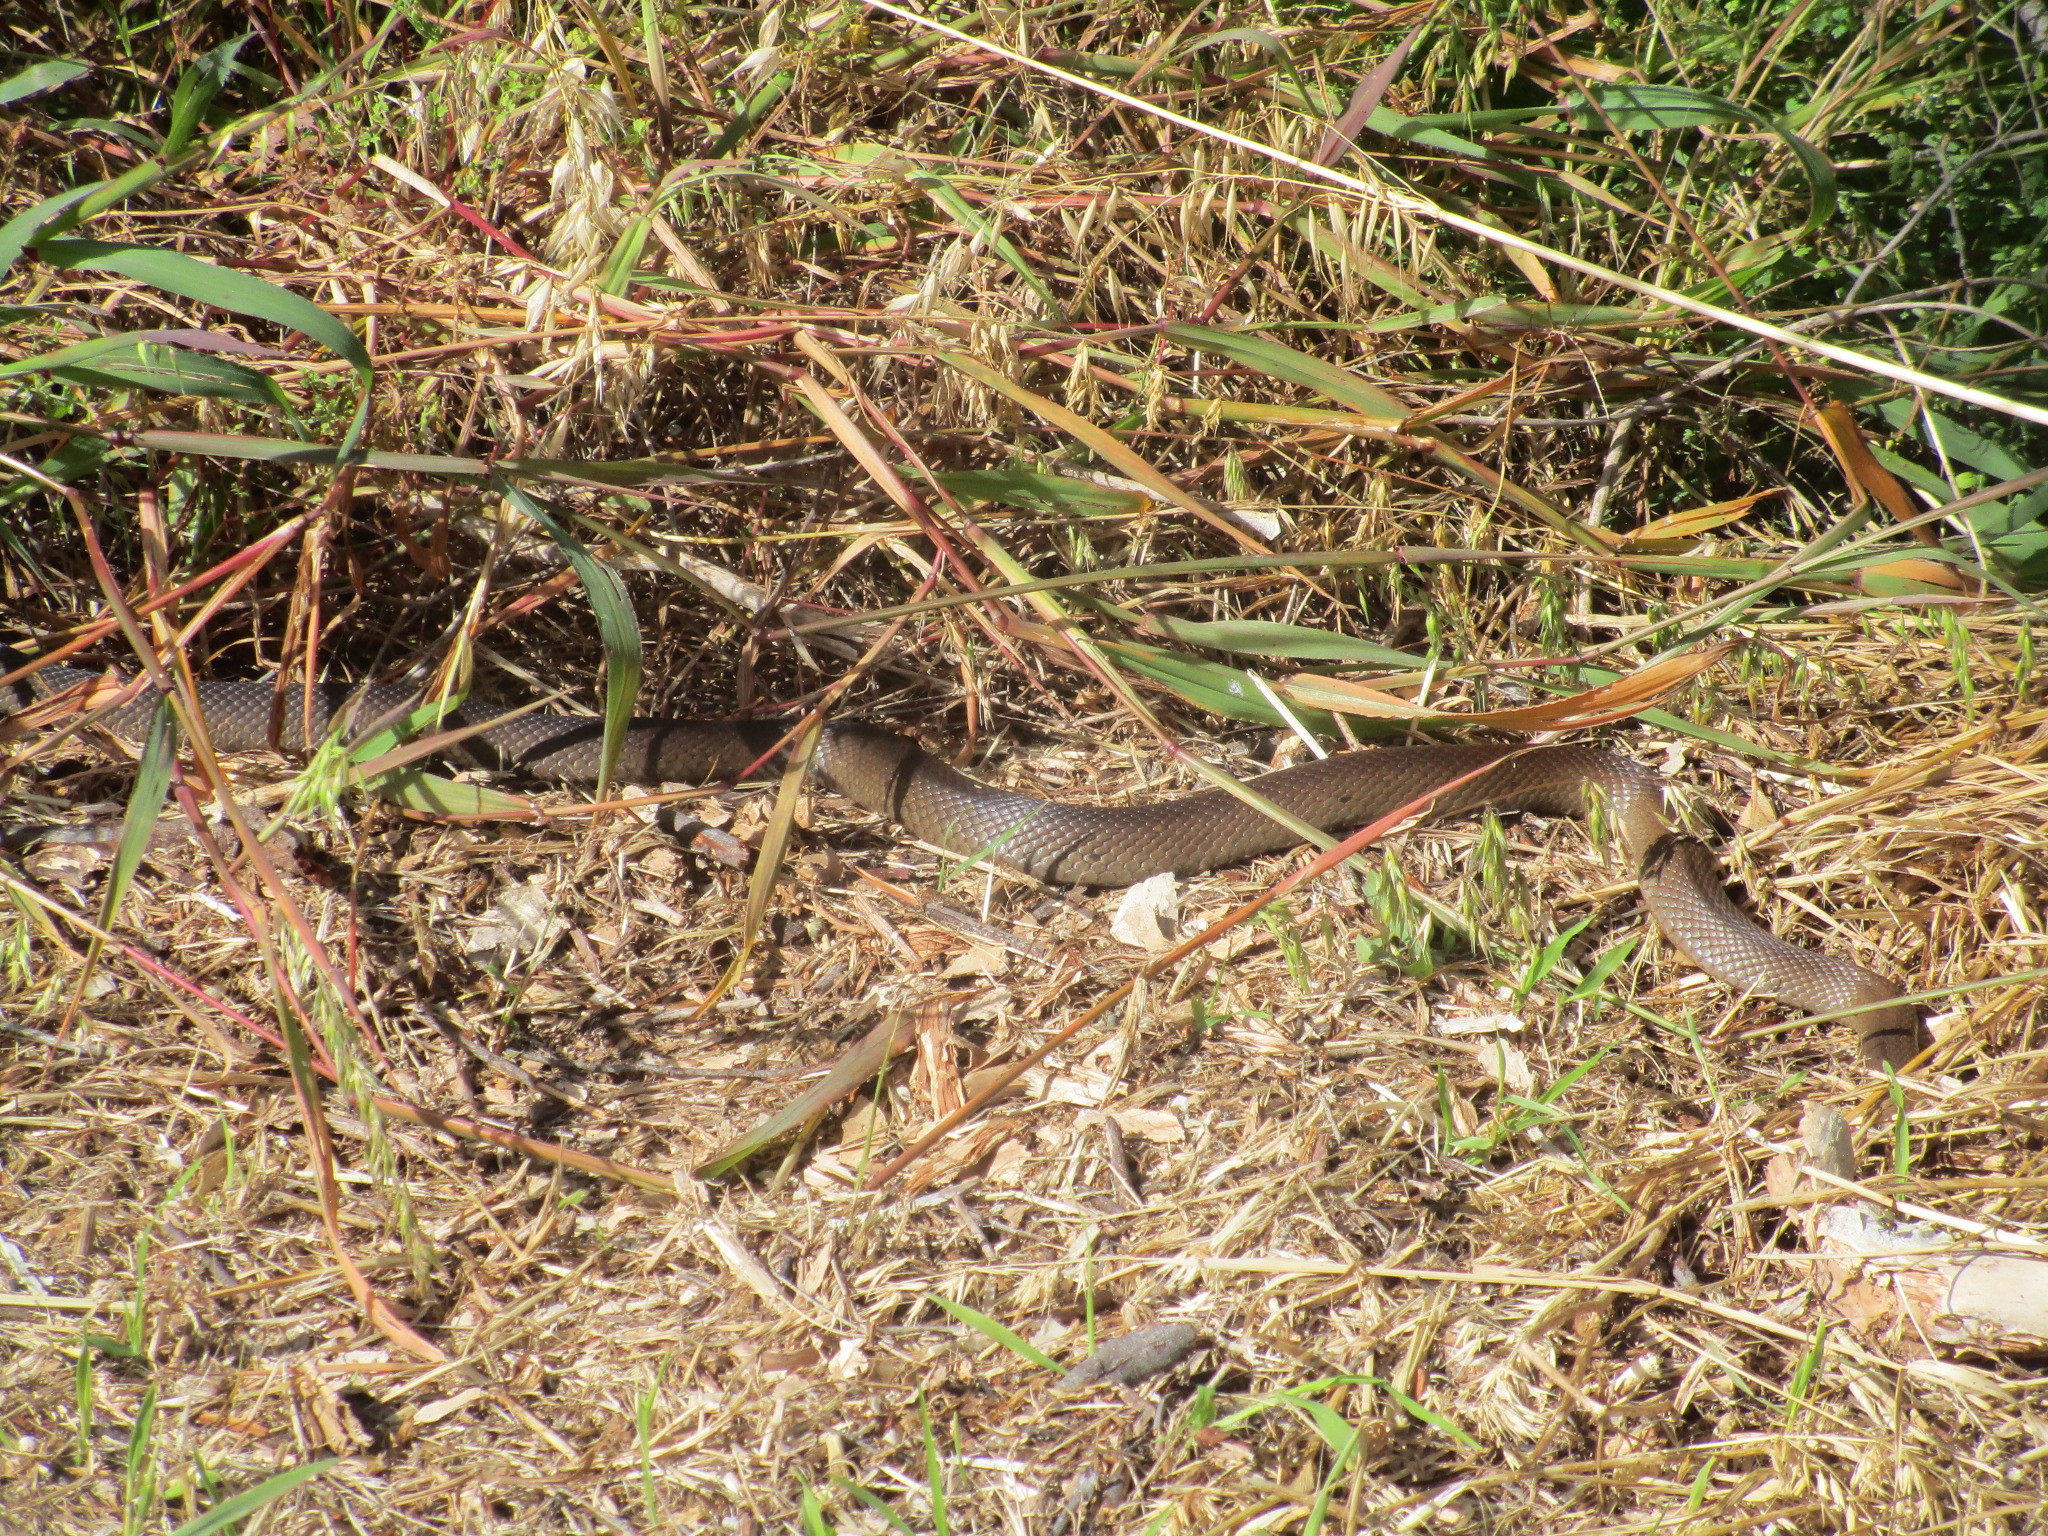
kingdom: Animalia
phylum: Chordata
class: Squamata
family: Elapidae
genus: Pseudonaja
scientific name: Pseudonaja affinis
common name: Dugite
